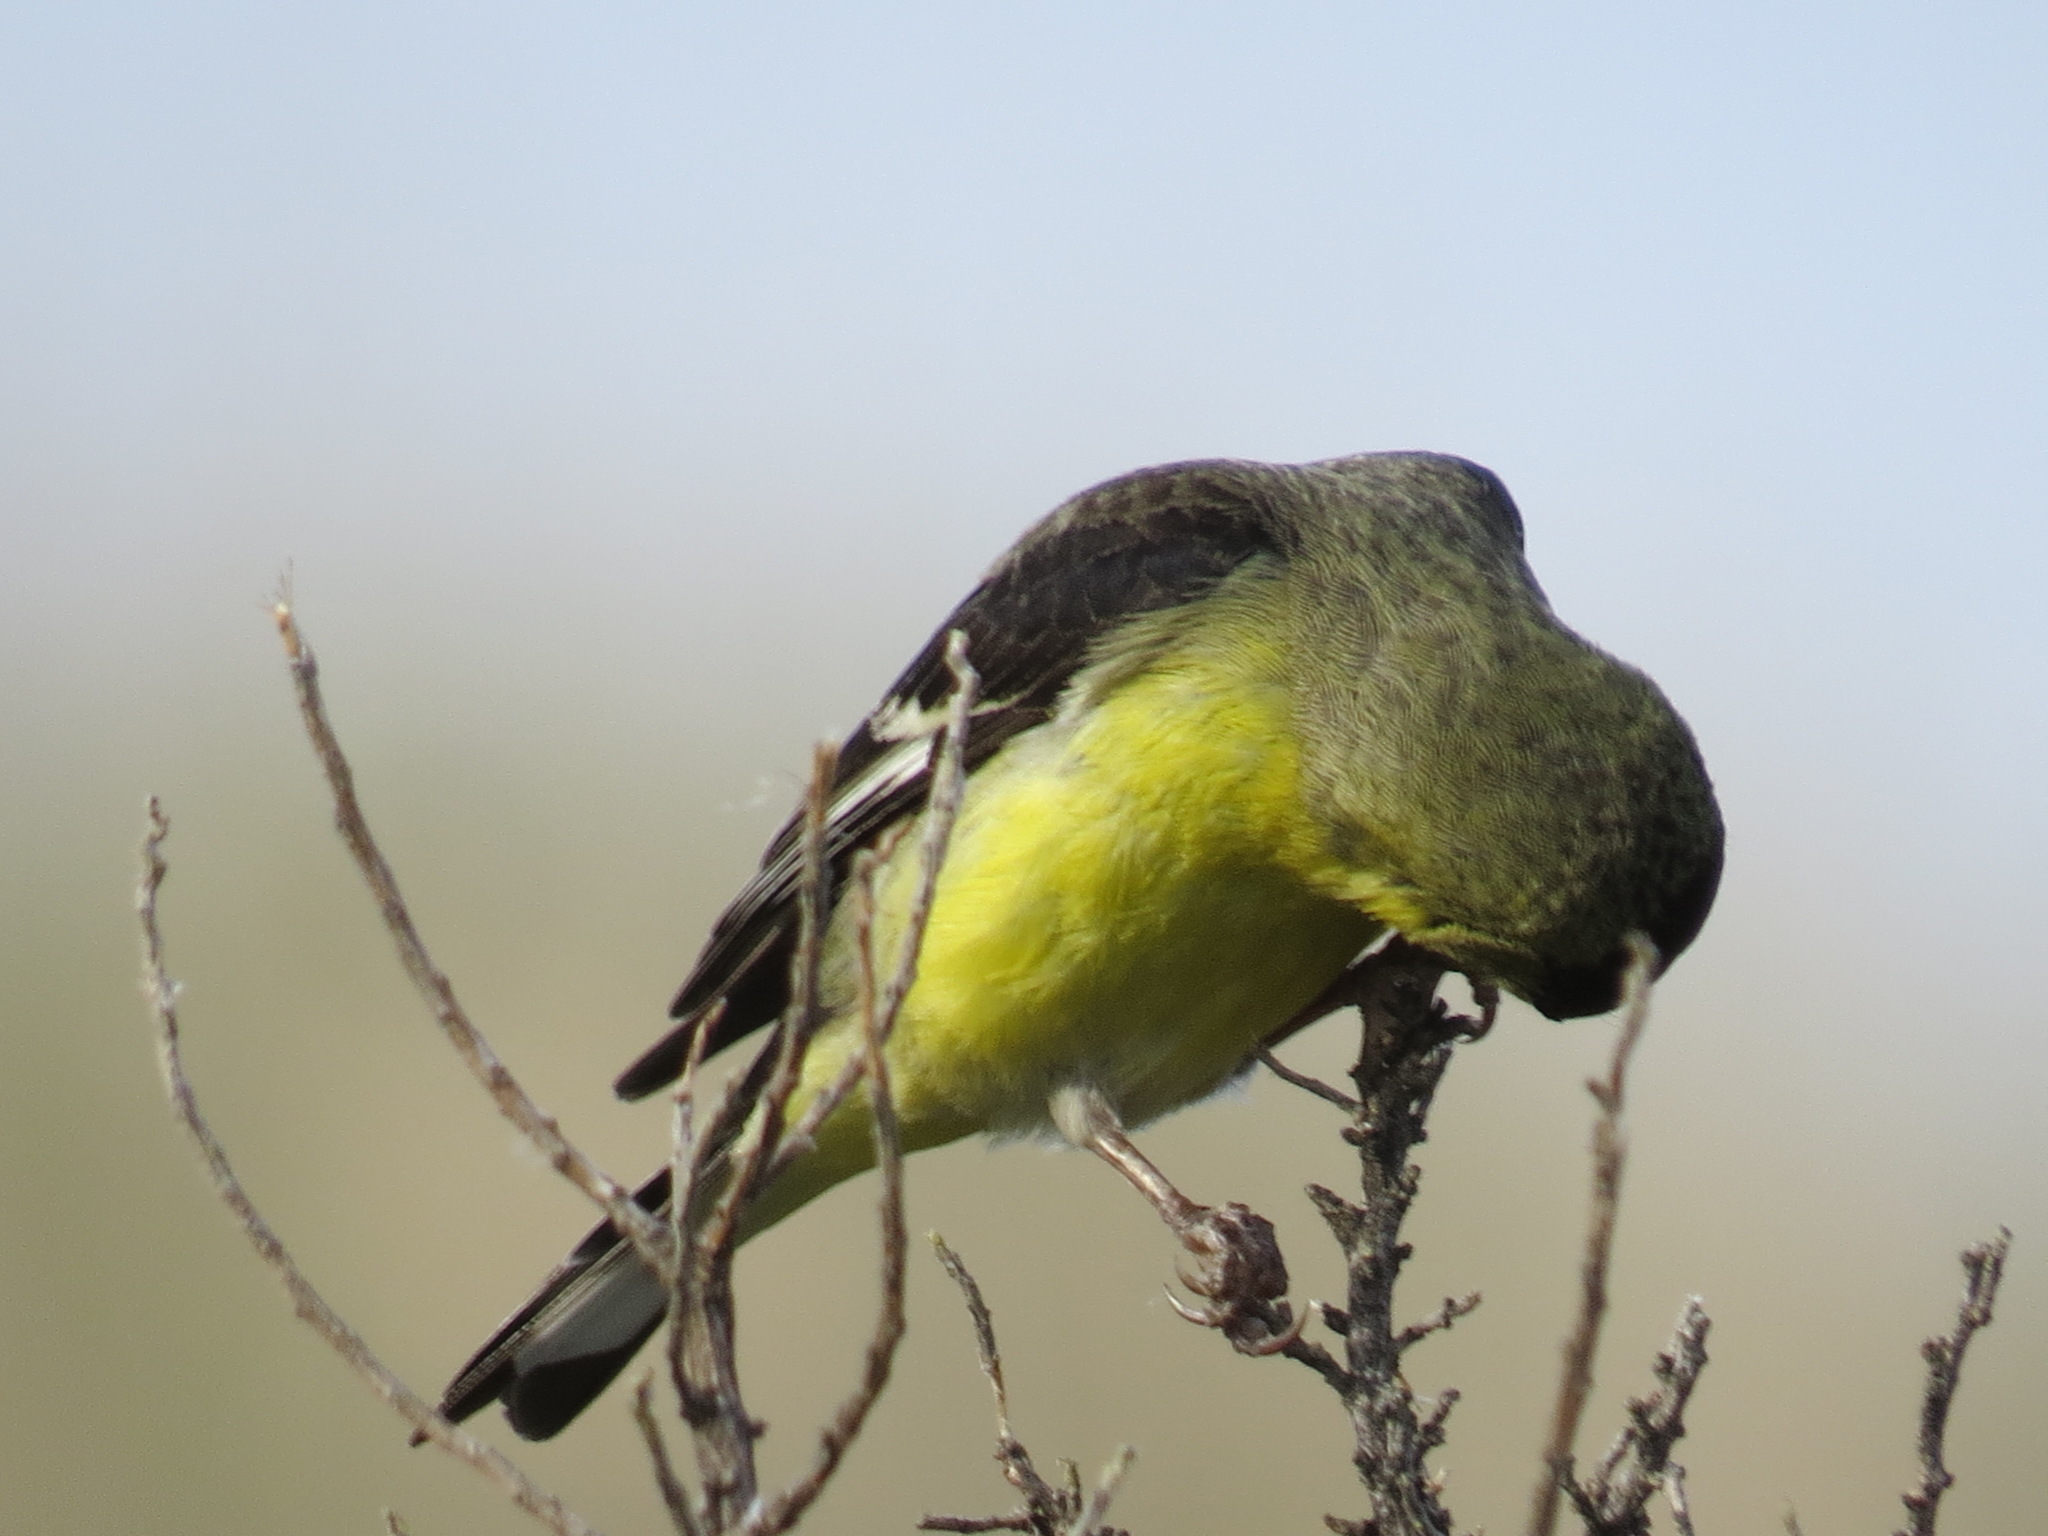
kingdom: Animalia
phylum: Chordata
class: Aves
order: Passeriformes
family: Fringillidae
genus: Spinus
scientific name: Spinus psaltria
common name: Lesser goldfinch
